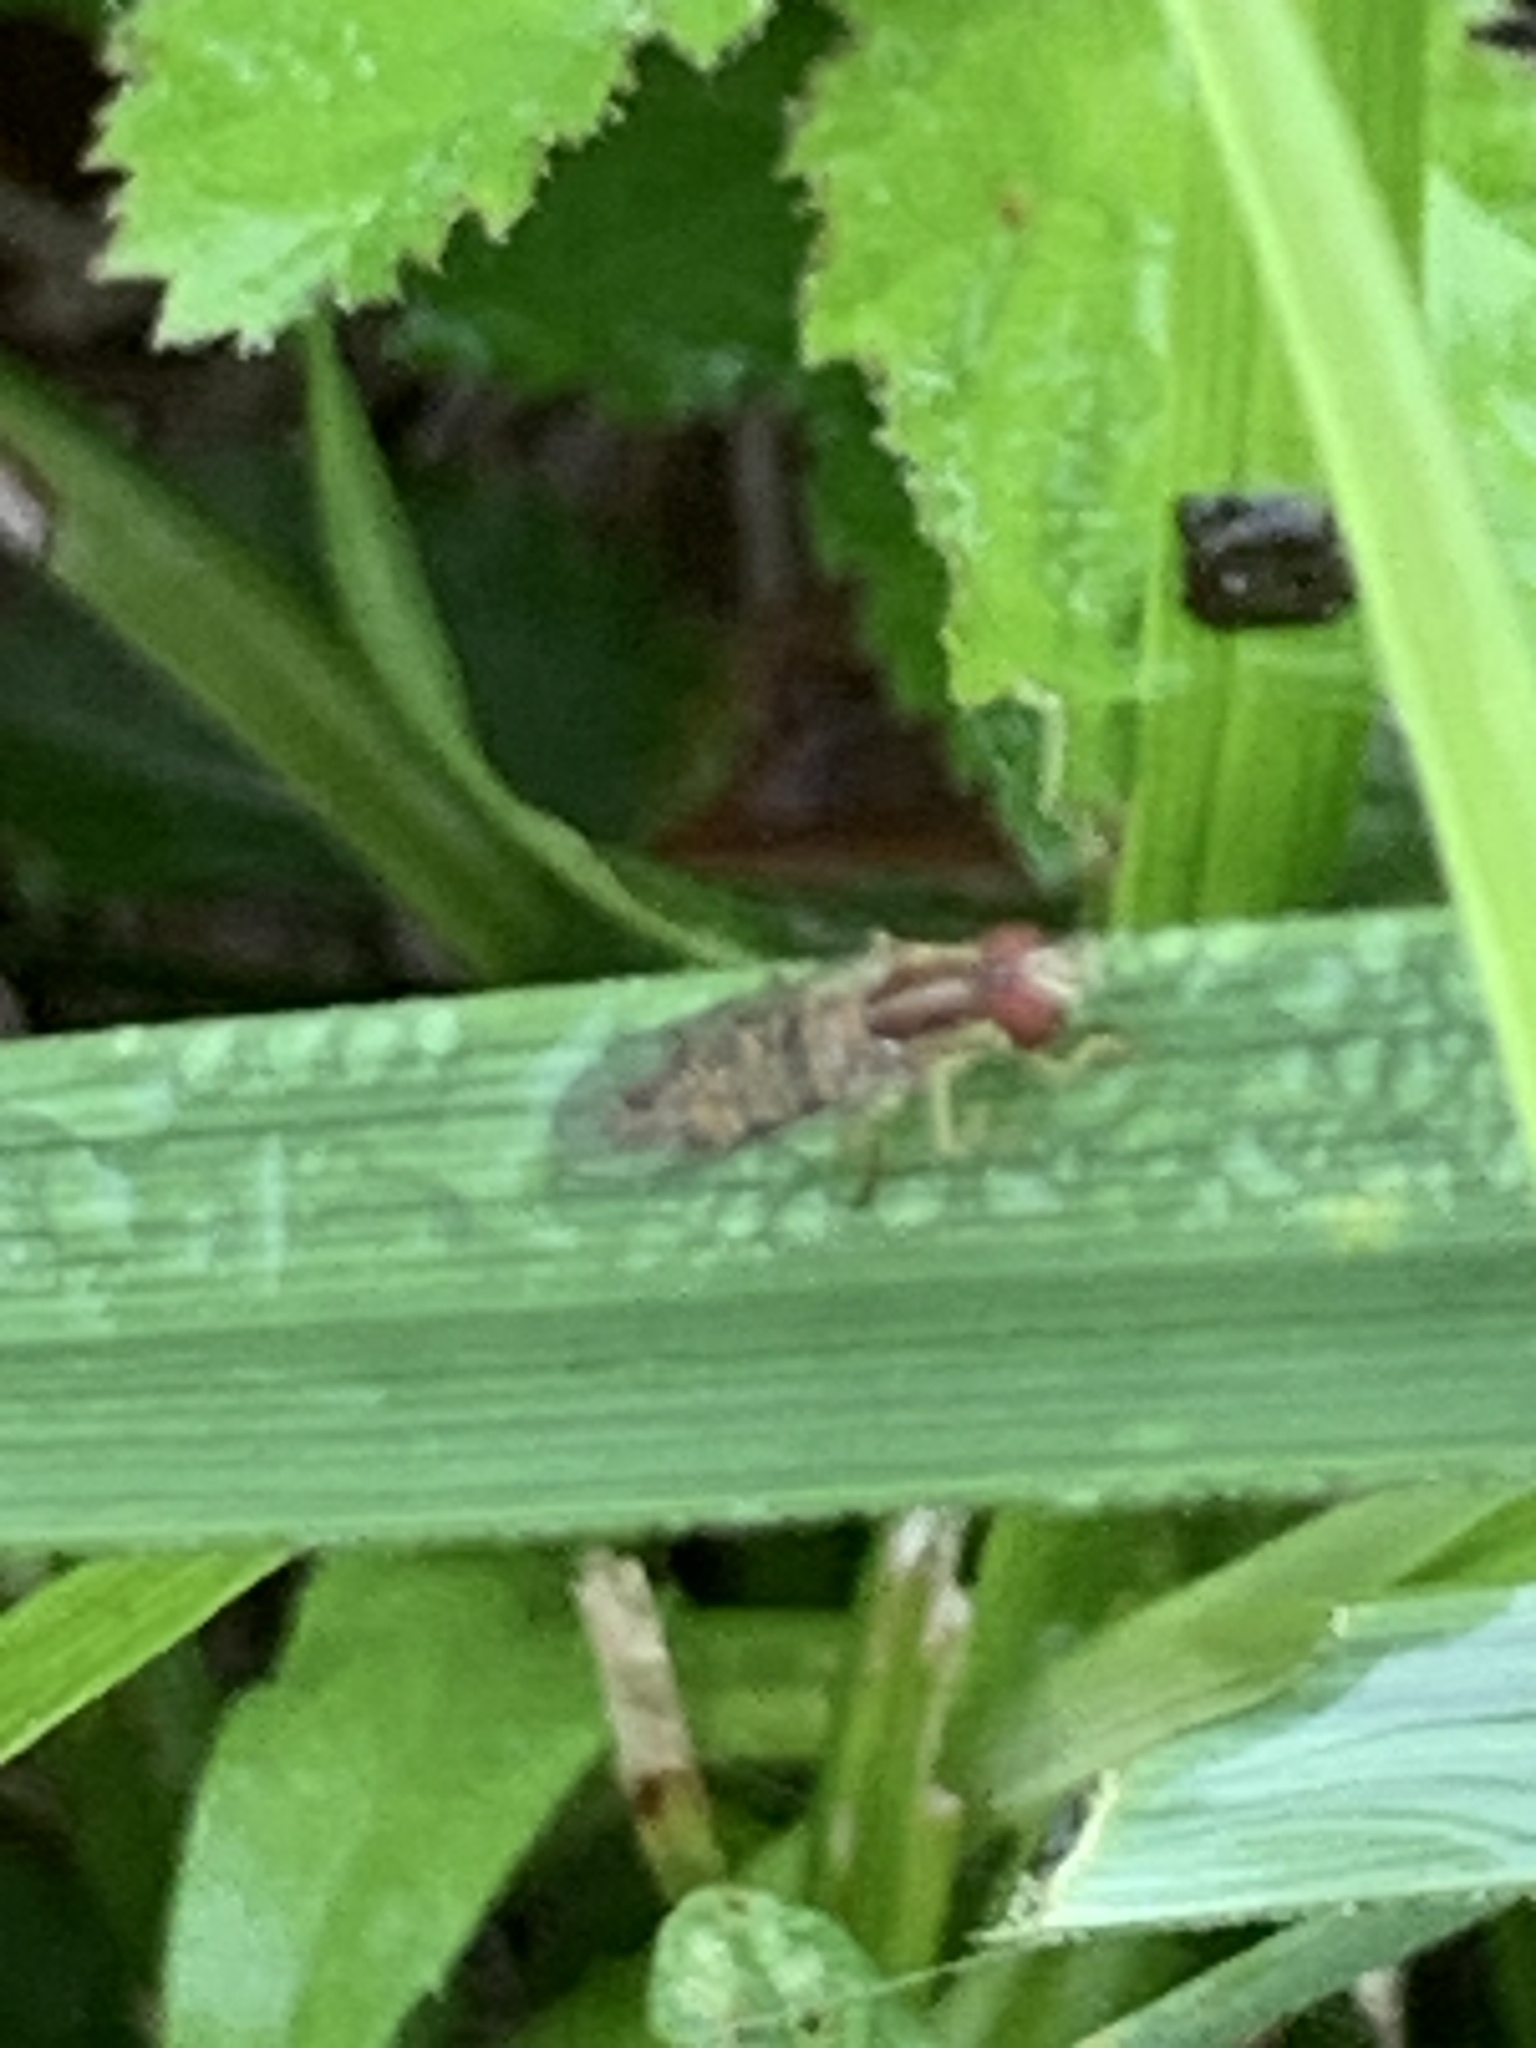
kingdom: Animalia
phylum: Arthropoda
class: Insecta
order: Diptera
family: Syrphidae
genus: Toxomerus
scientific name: Toxomerus politus
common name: Maize calligrapher
